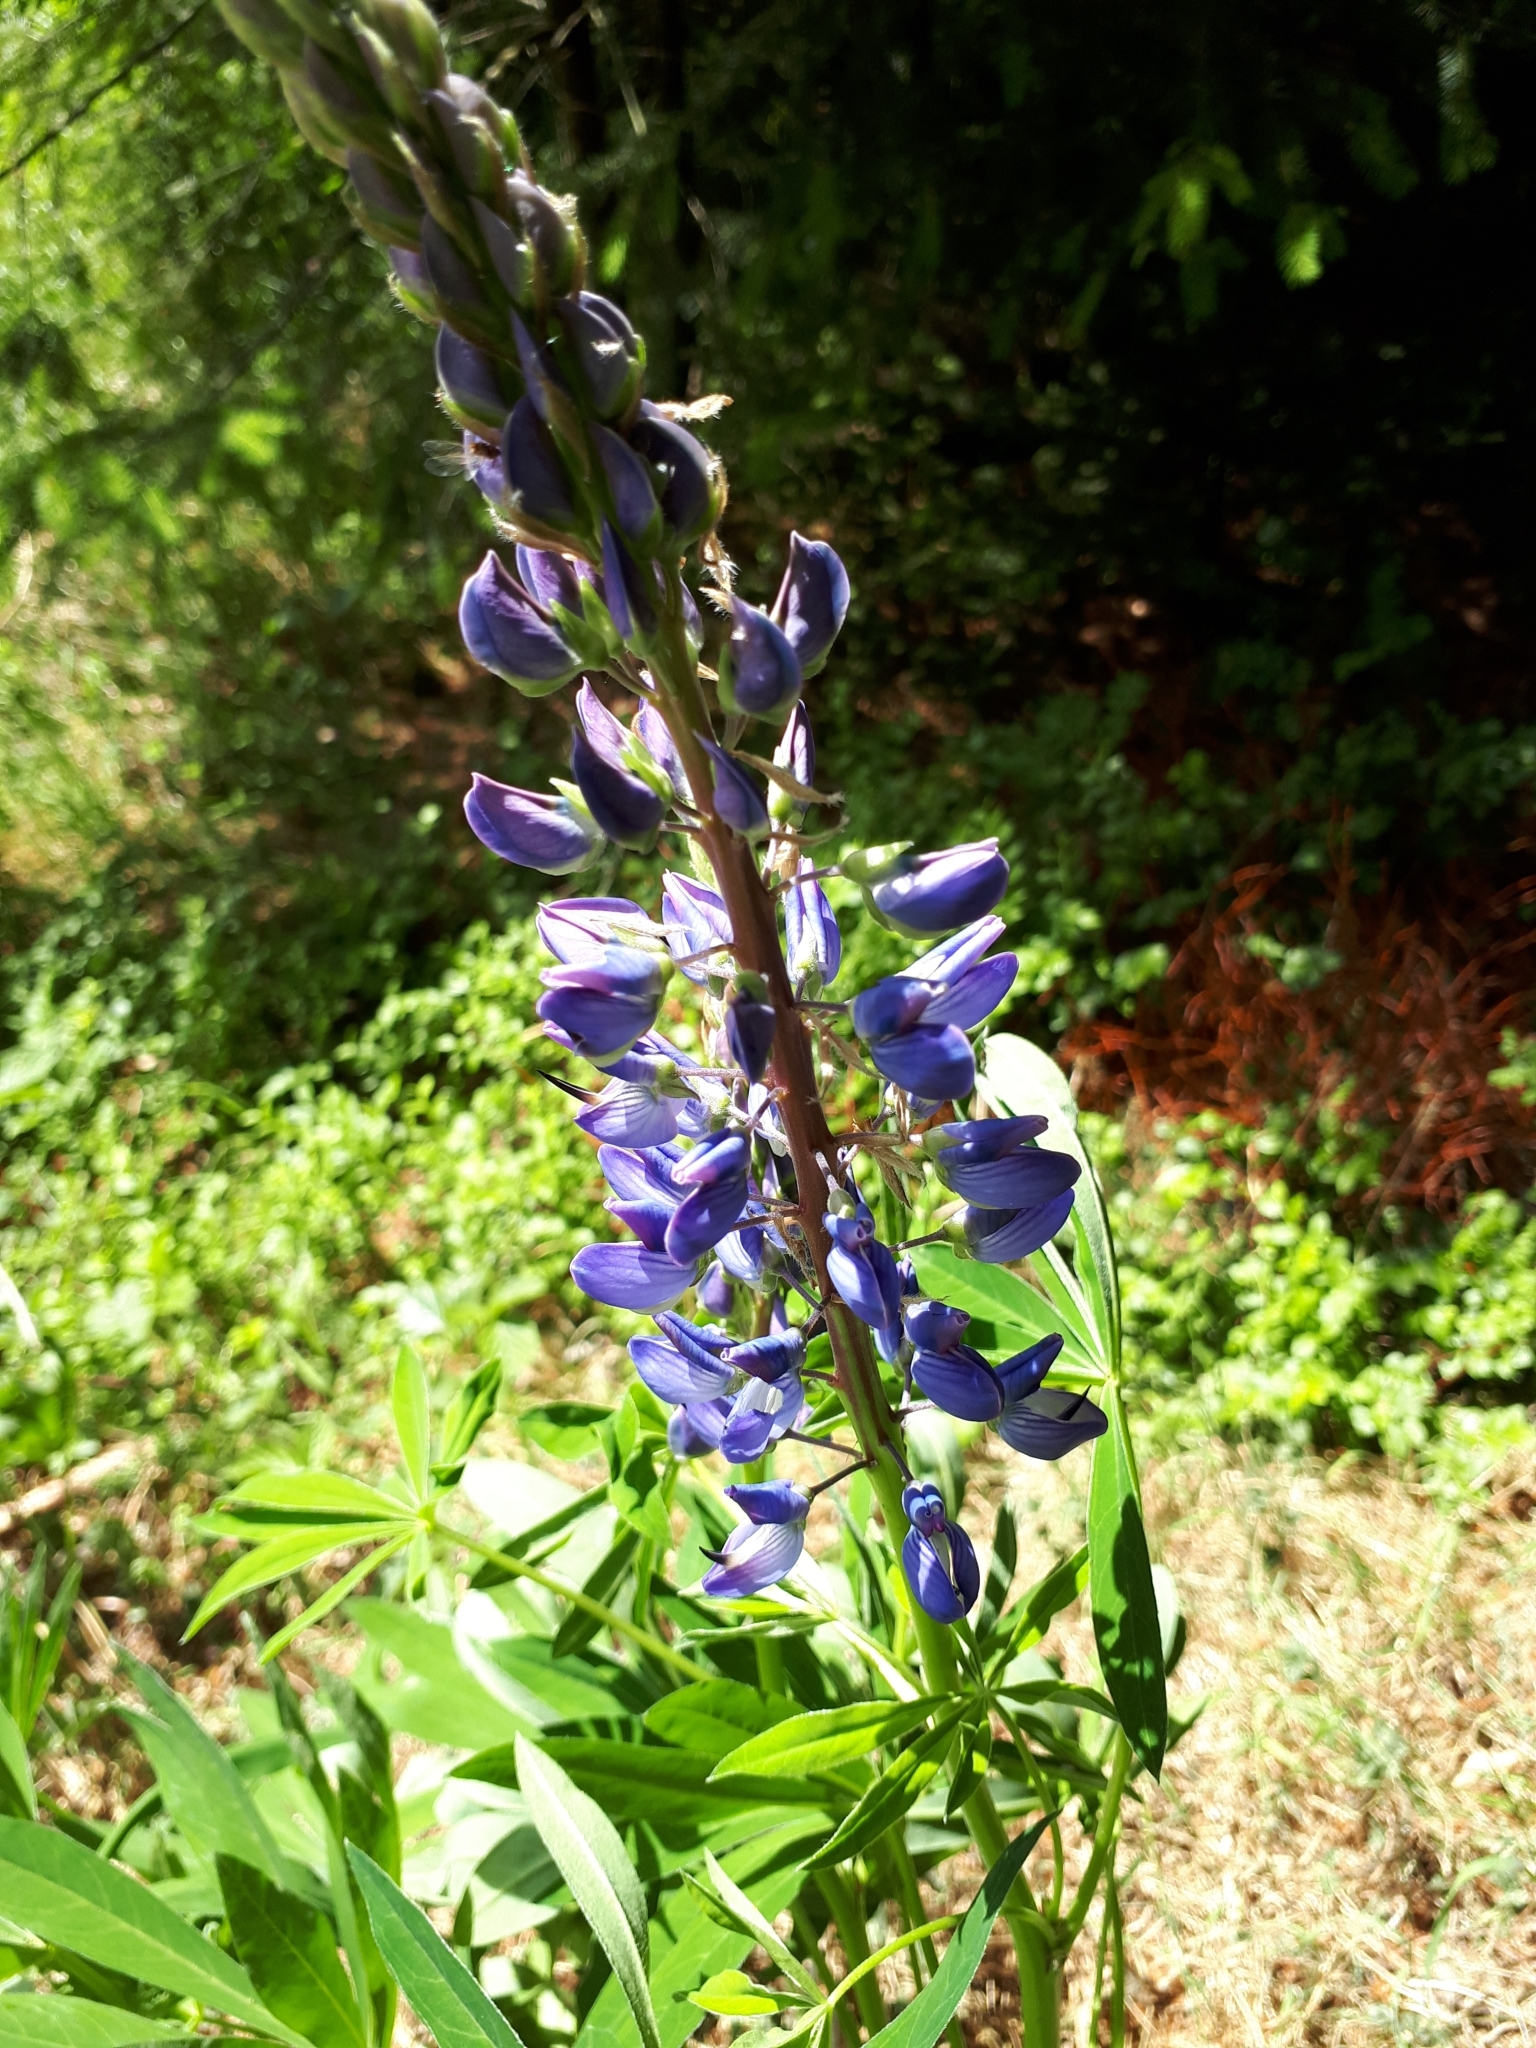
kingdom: Plantae
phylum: Tracheophyta
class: Magnoliopsida
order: Fabales
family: Fabaceae
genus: Lupinus
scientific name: Lupinus polyphyllus
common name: Garden lupin
